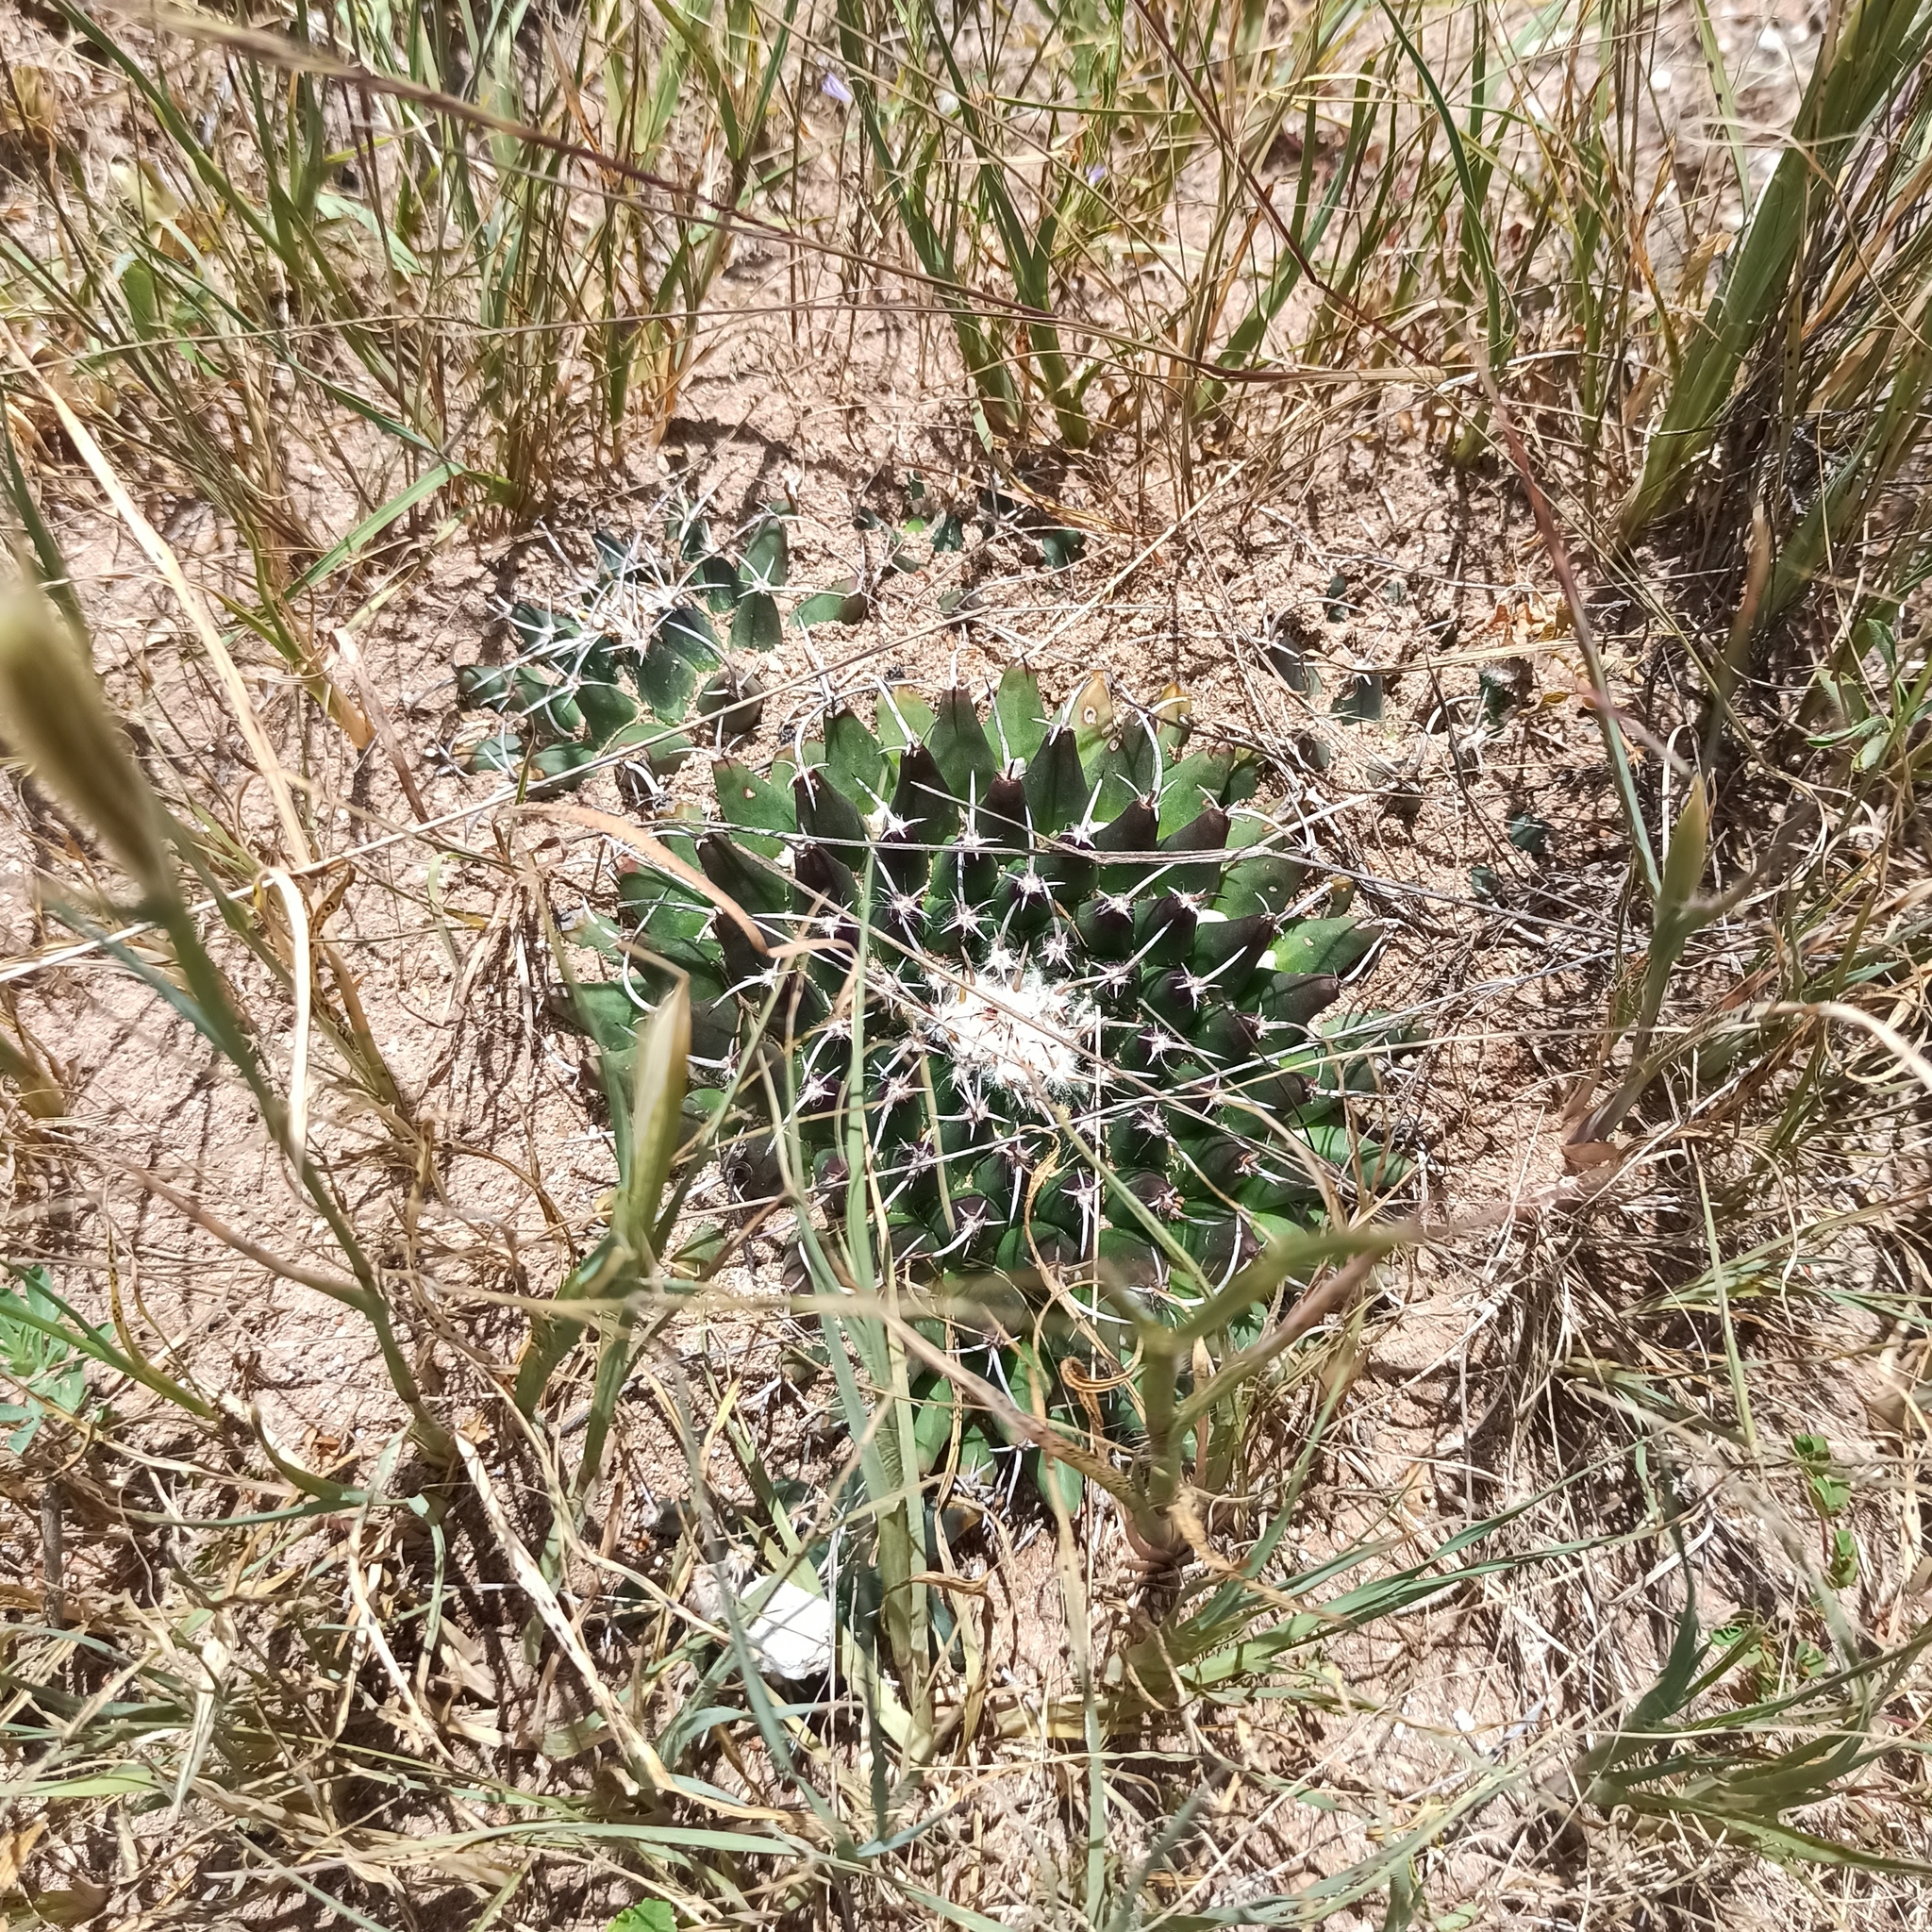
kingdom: Plantae
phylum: Tracheophyta
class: Magnoliopsida
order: Caryophyllales
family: Cactaceae
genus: Mammillaria
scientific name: Mammillaria magnimamma
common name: Mexican pincushion
